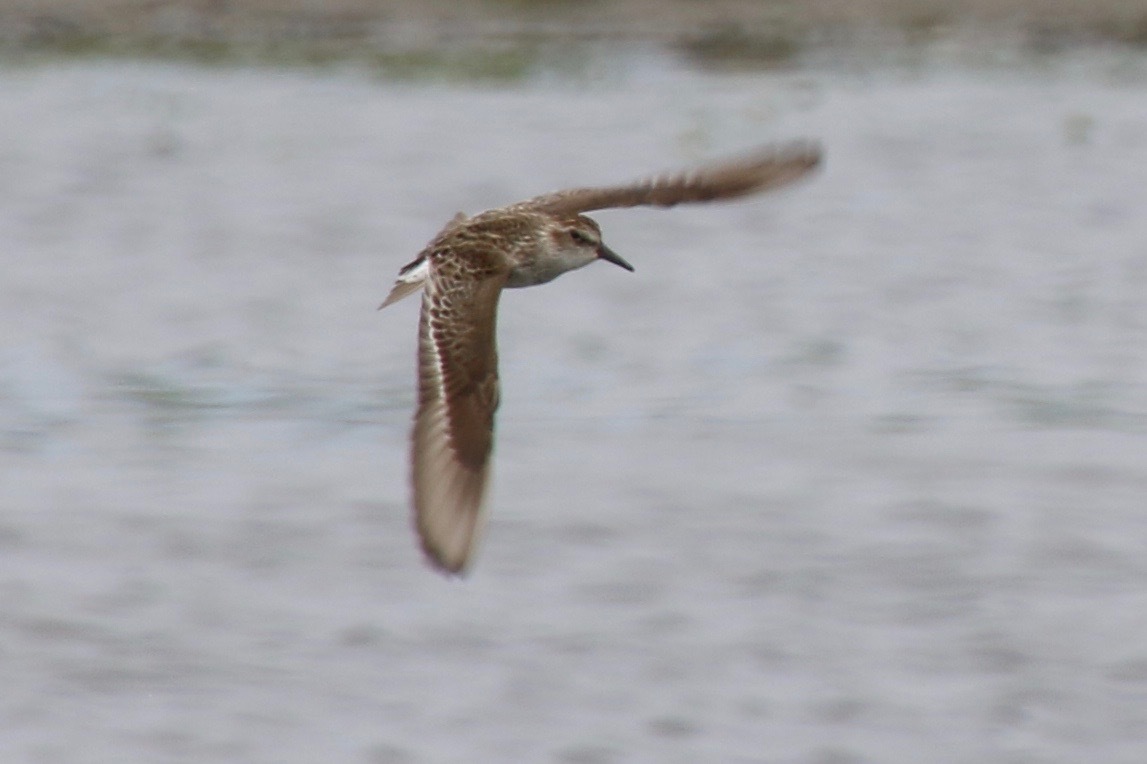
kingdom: Animalia
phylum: Chordata
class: Aves
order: Charadriiformes
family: Scolopacidae
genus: Calidris
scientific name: Calidris pusilla
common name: Semipalmated sandpiper
